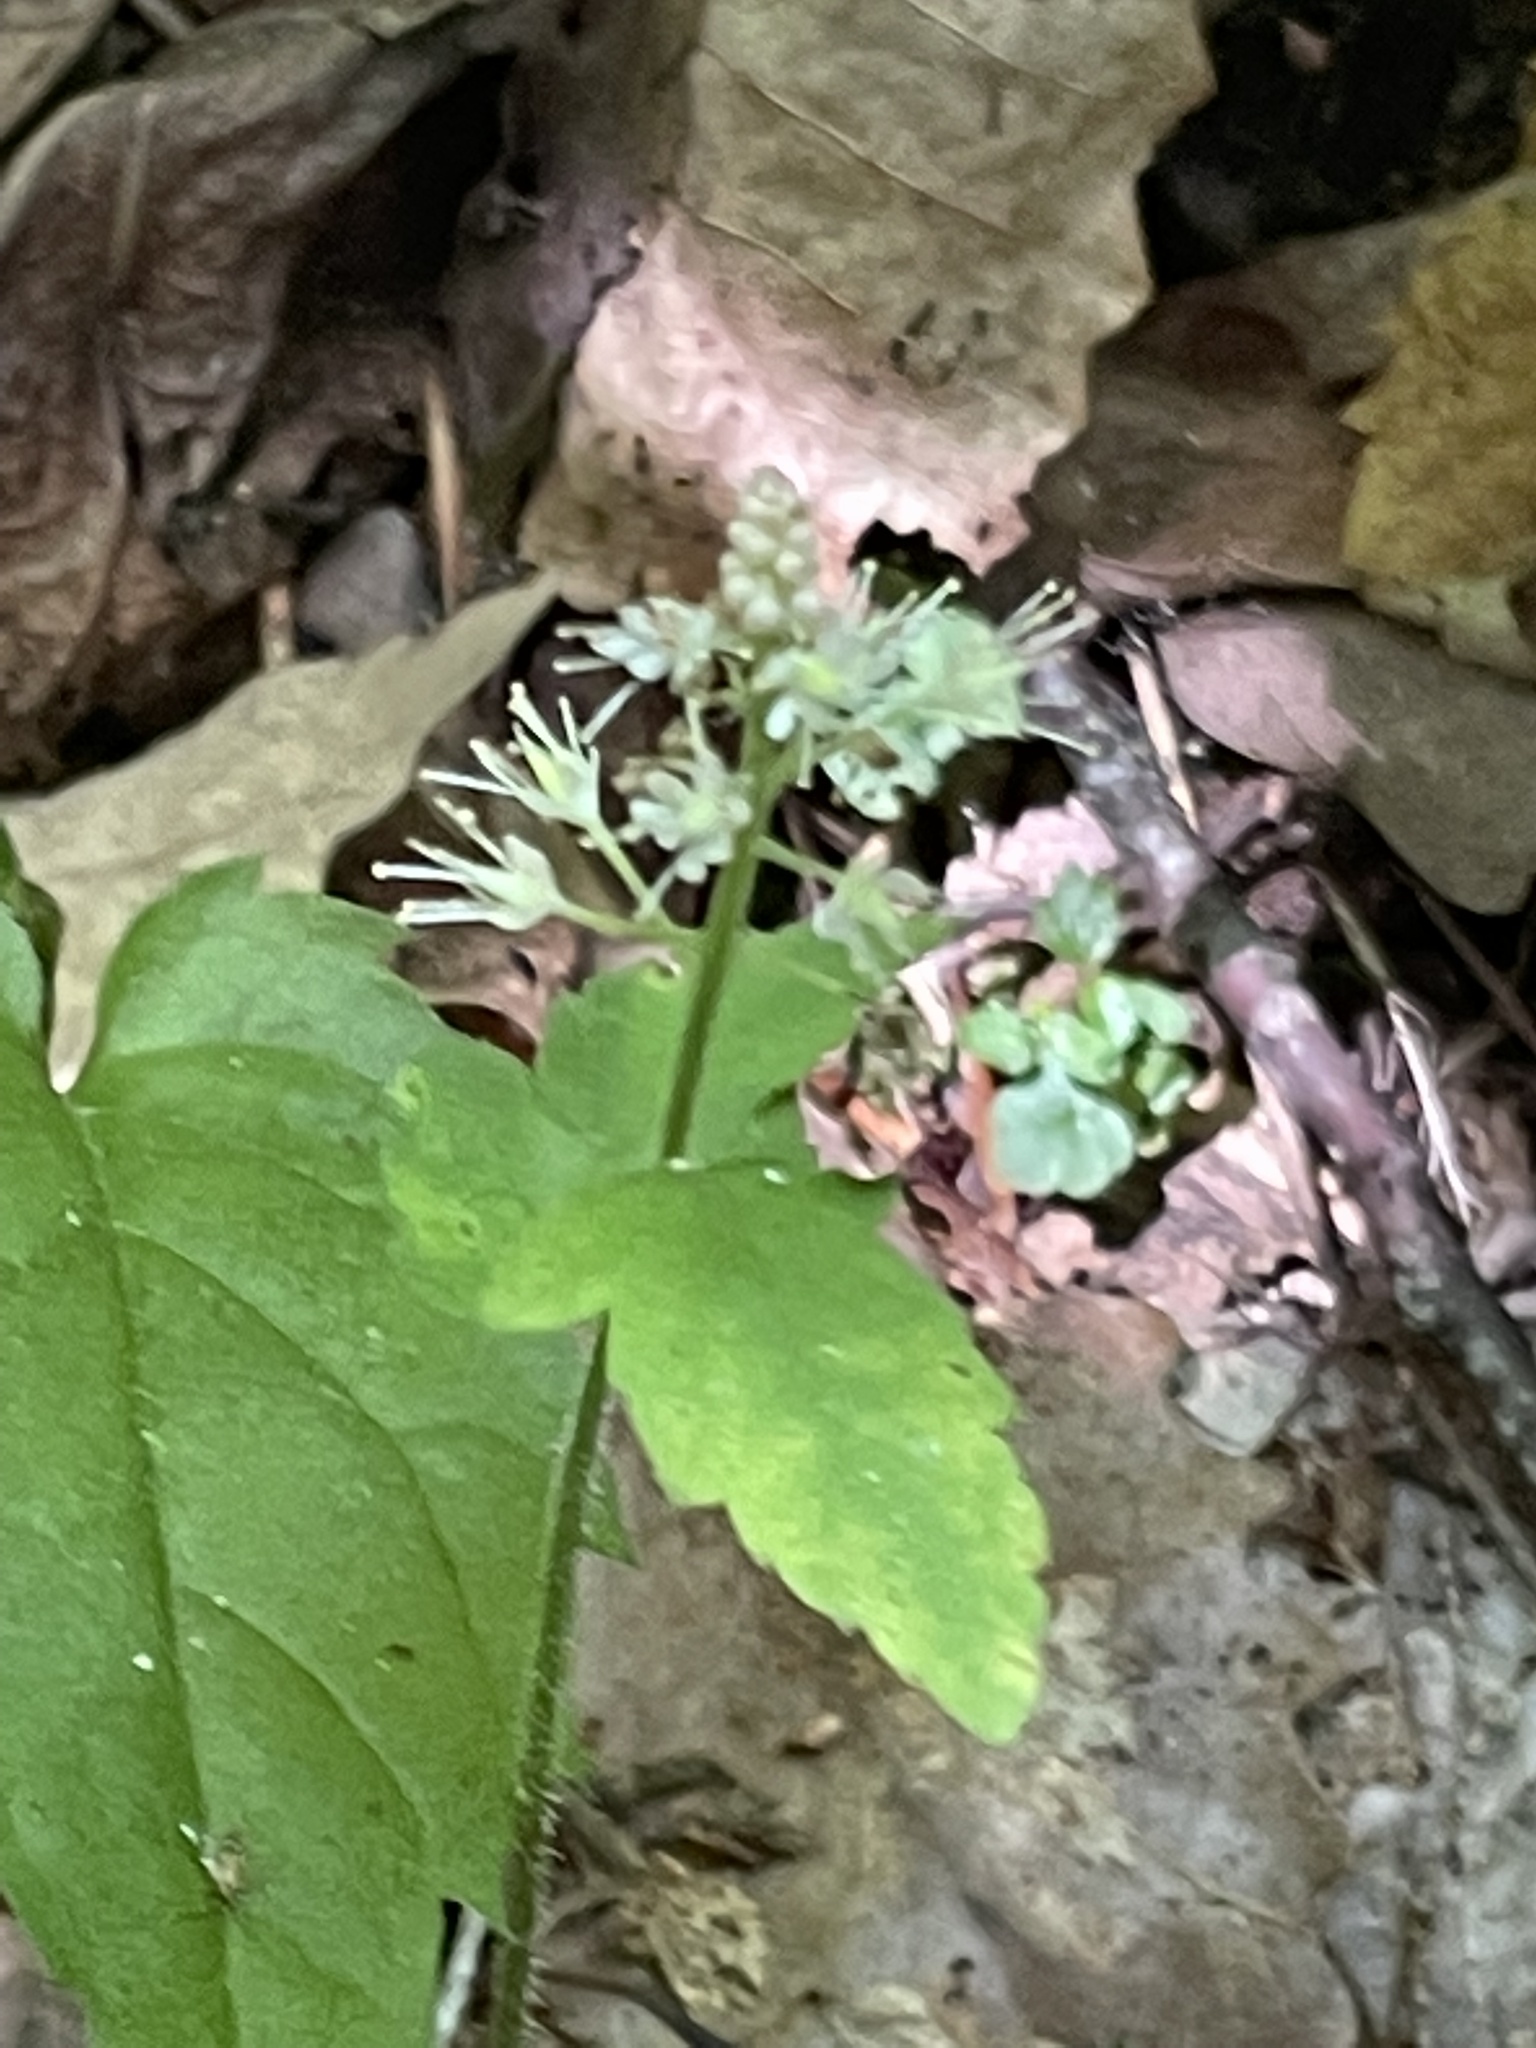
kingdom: Plantae
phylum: Tracheophyta
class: Magnoliopsida
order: Saxifragales
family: Saxifragaceae
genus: Tiarella
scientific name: Tiarella nautila
